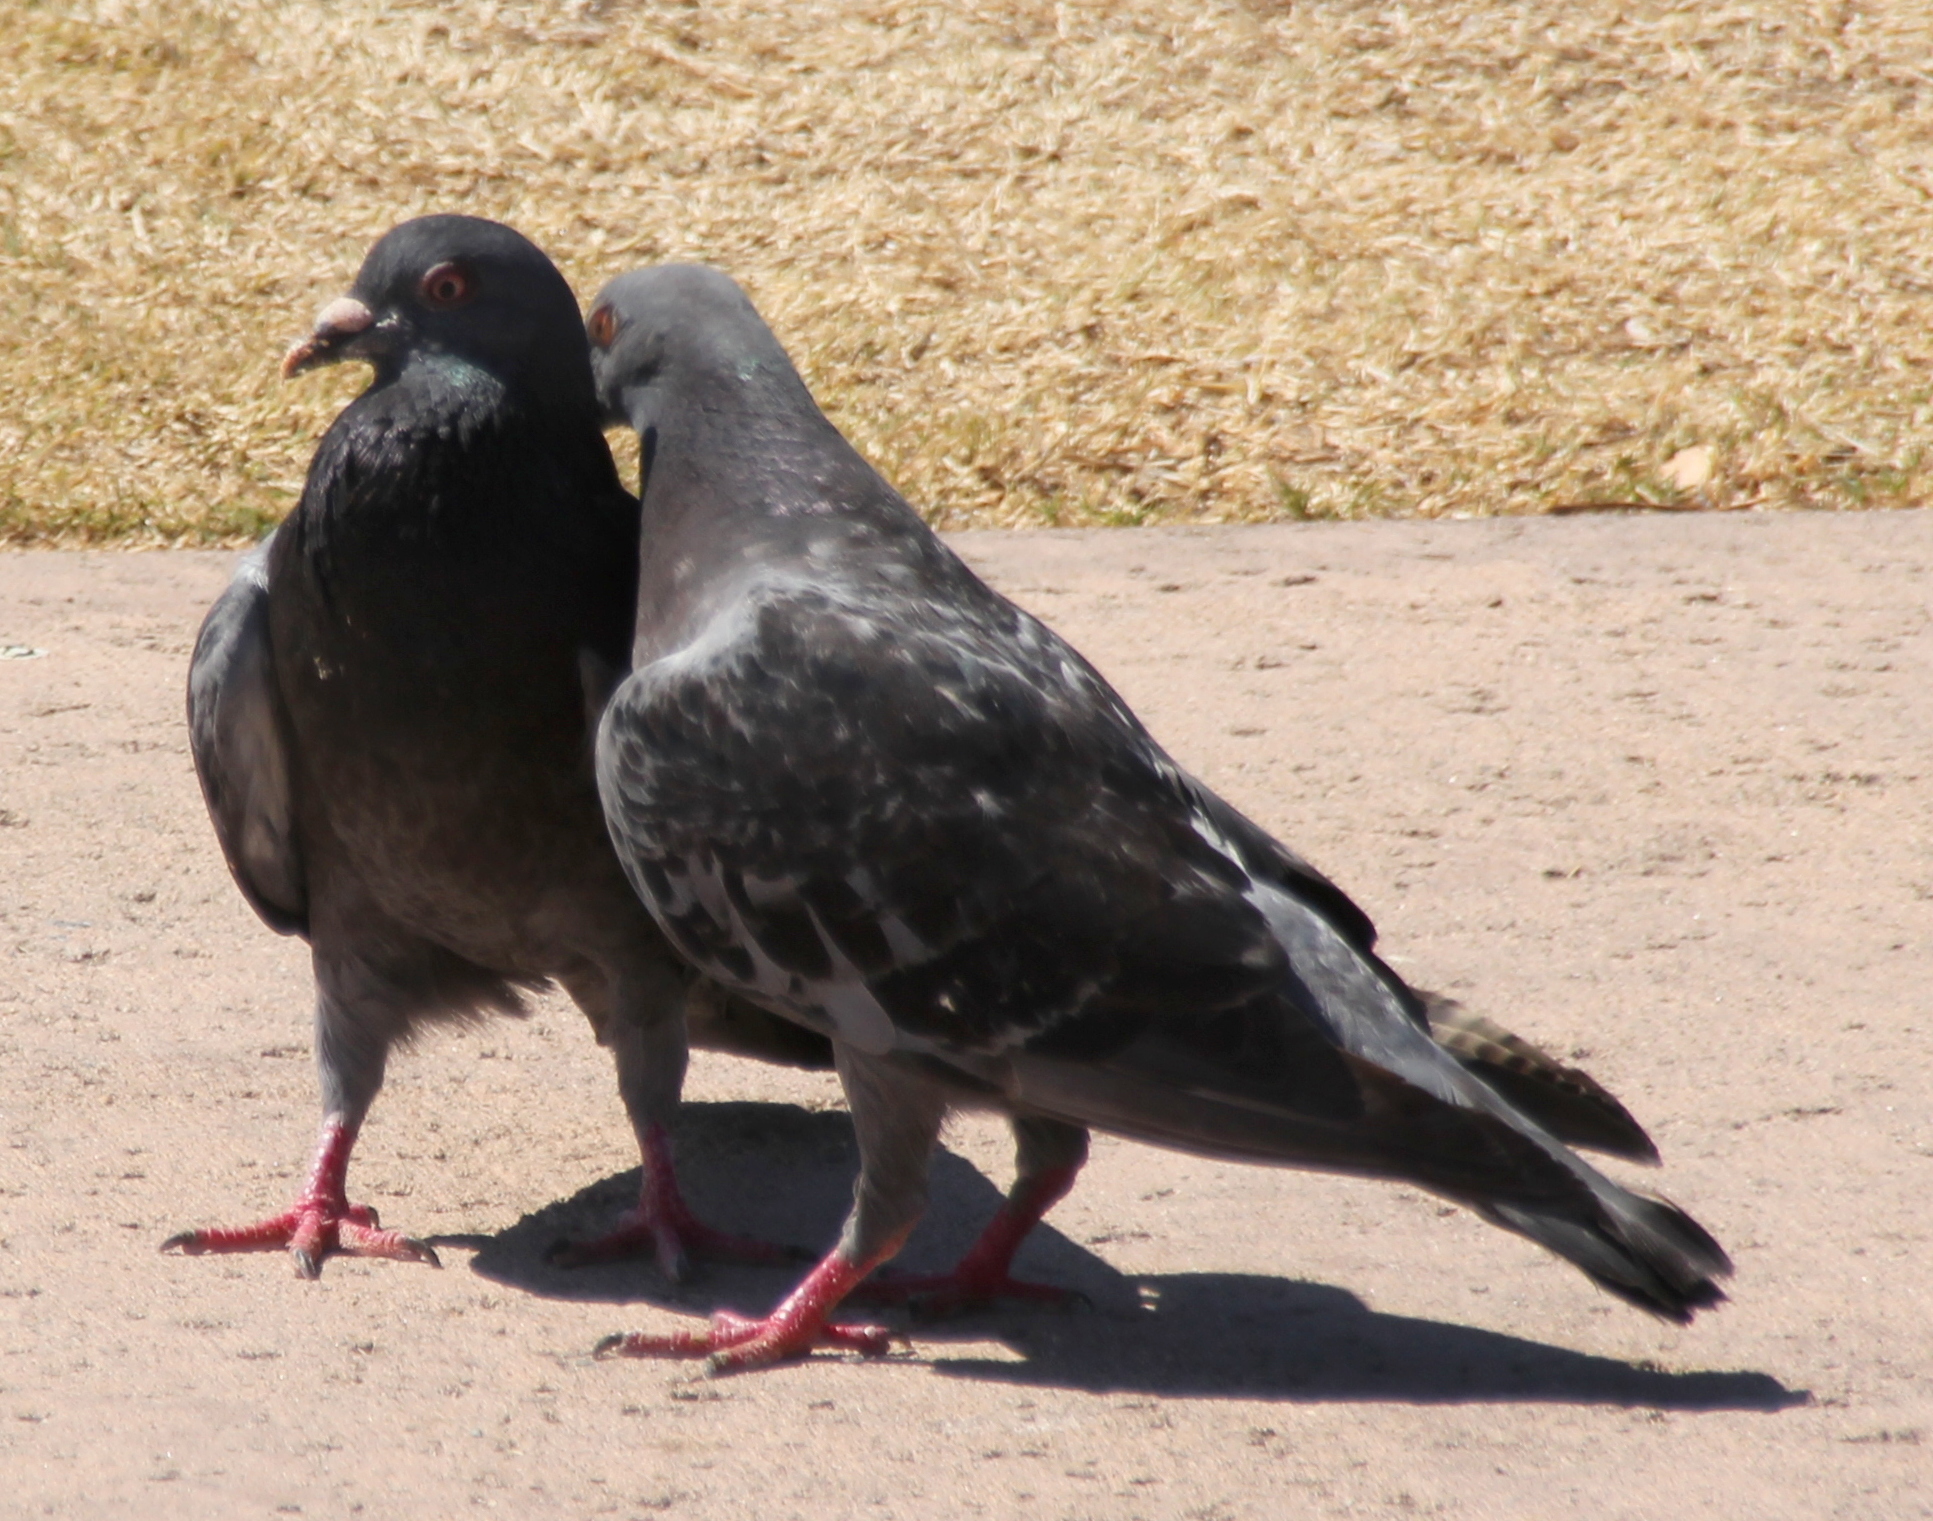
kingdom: Animalia
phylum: Chordata
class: Aves
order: Columbiformes
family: Columbidae
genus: Columba
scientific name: Columba livia
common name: Rock pigeon
